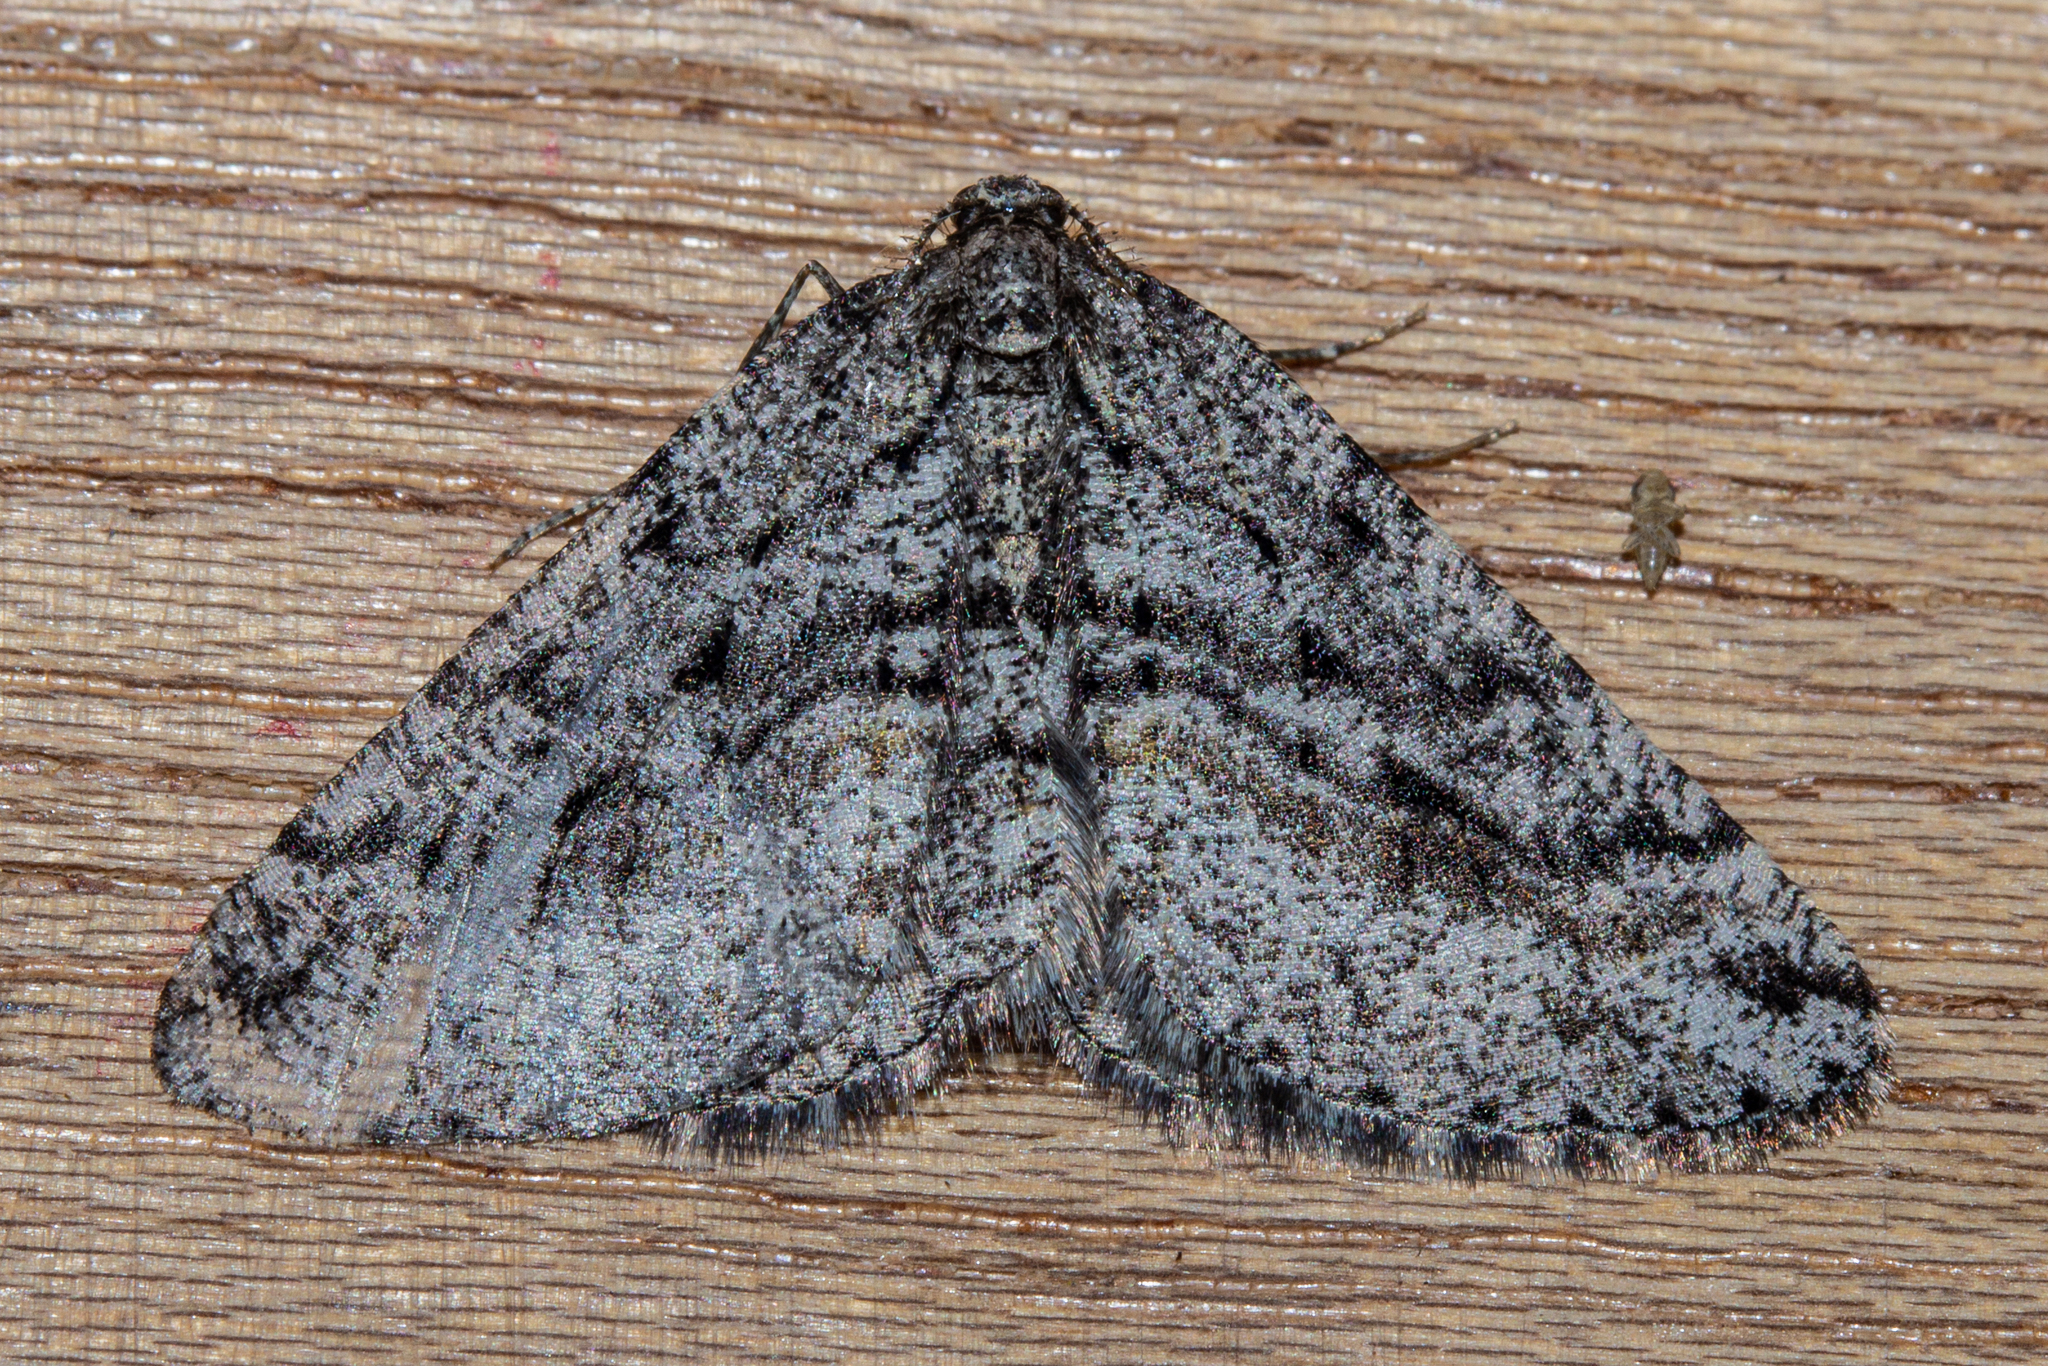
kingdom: Animalia
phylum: Arthropoda
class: Insecta
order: Lepidoptera
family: Geometridae
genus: Zermizinga
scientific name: Zermizinga indocilisaria
